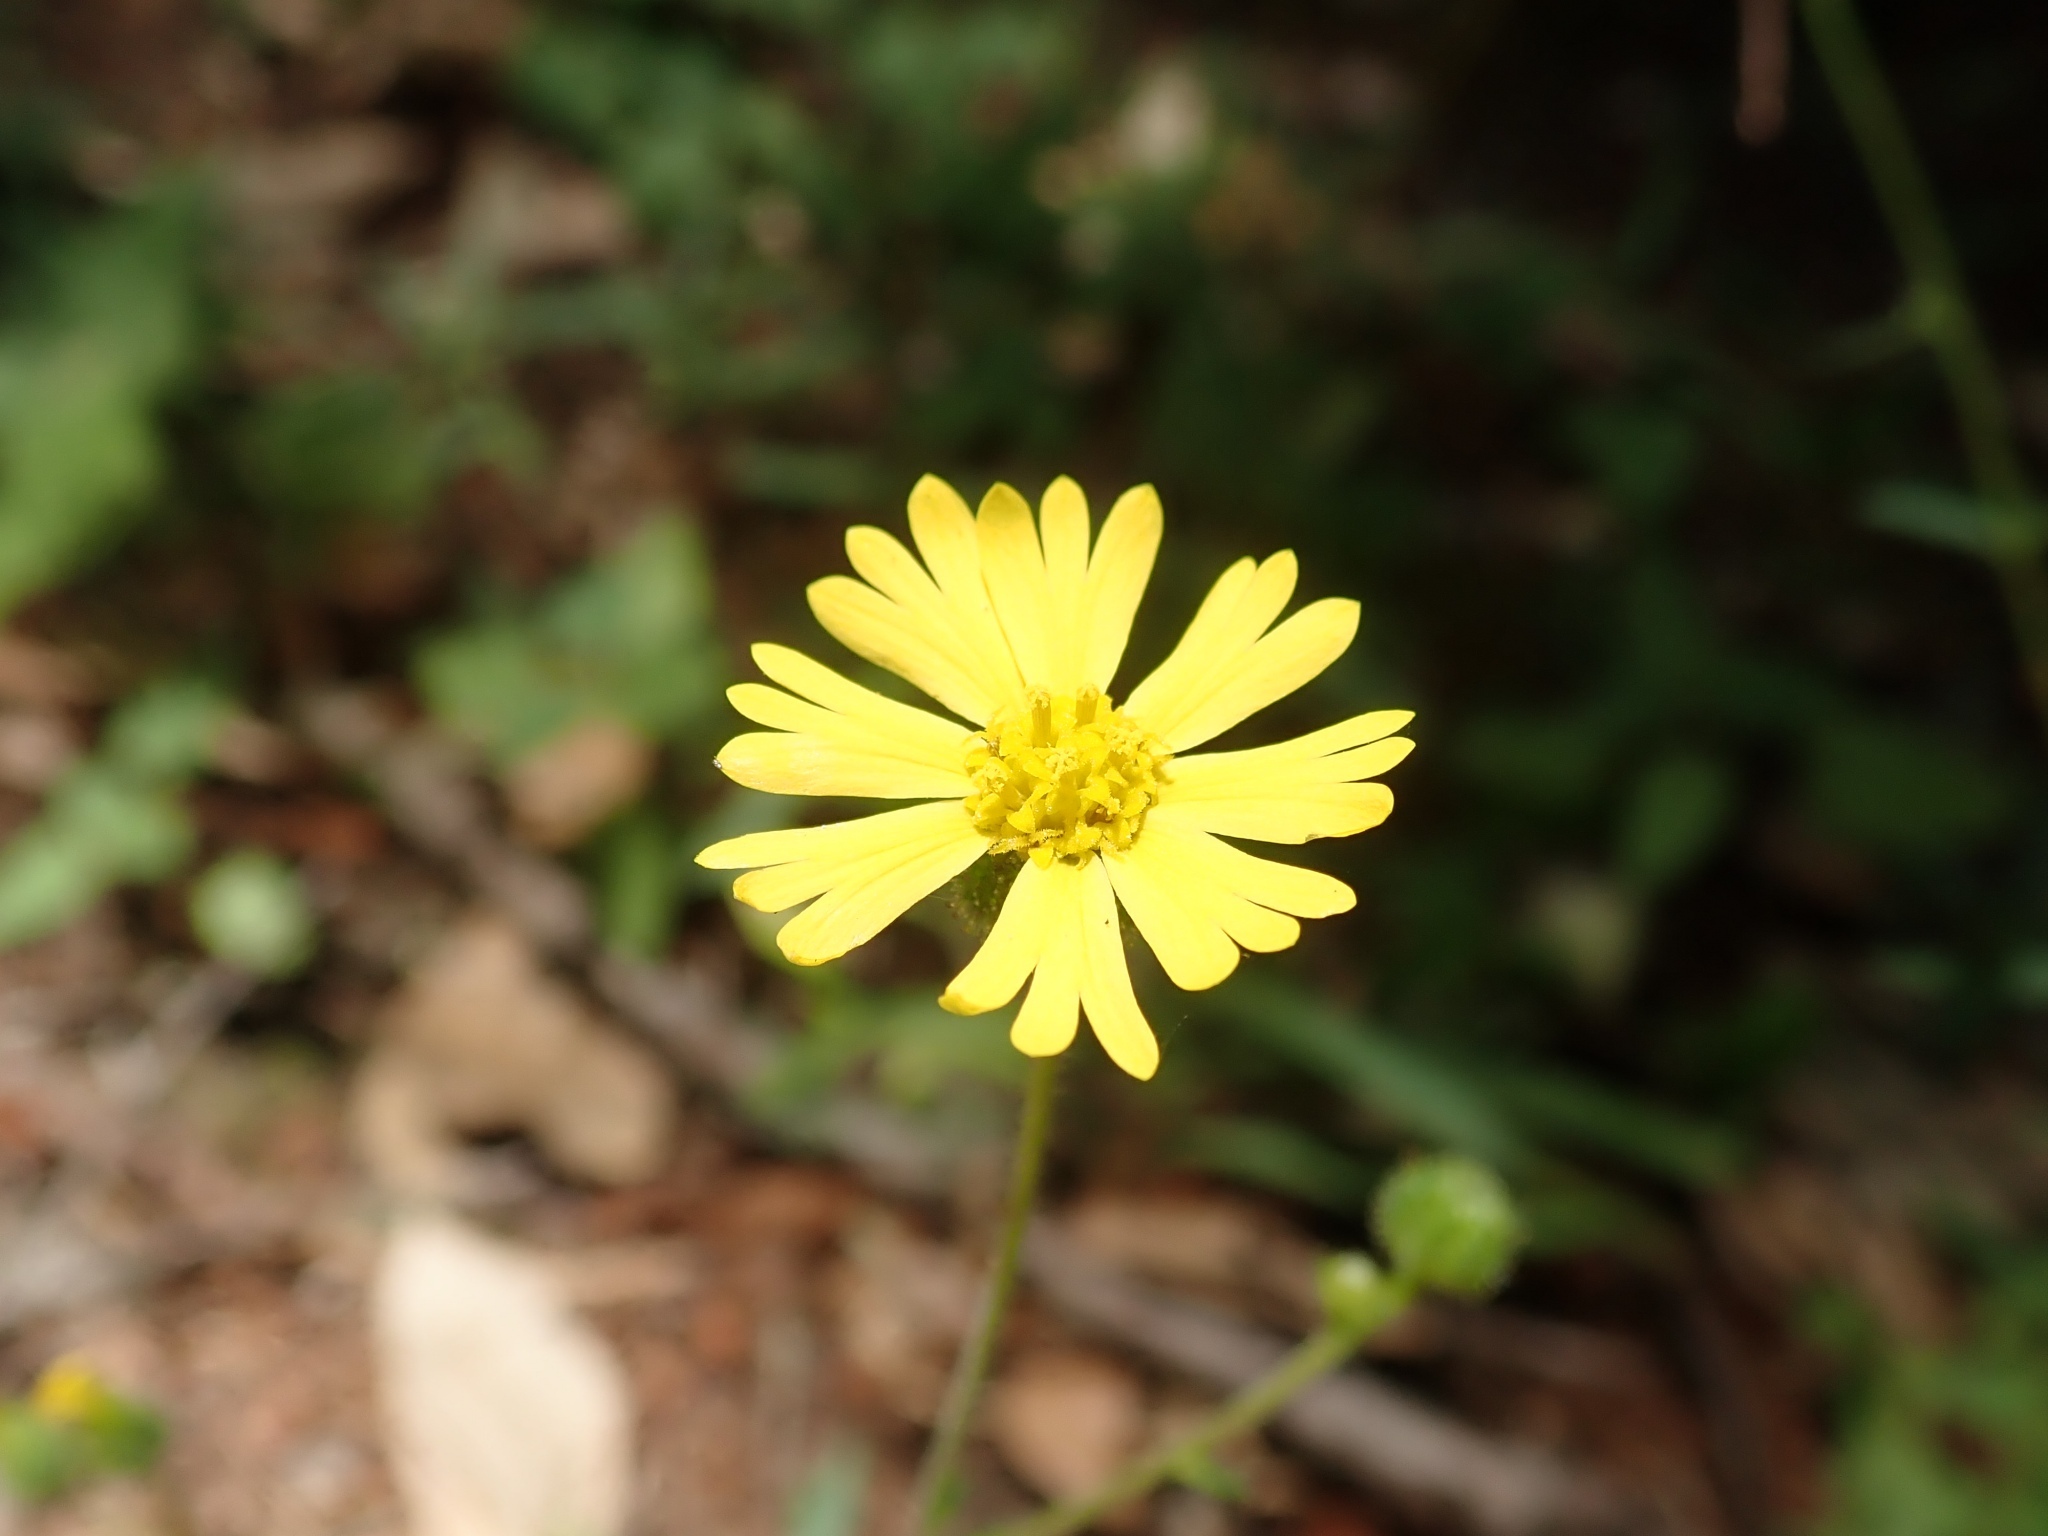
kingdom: Plantae
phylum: Tracheophyta
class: Magnoliopsida
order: Asterales
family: Asteraceae
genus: Anisocarpus
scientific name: Anisocarpus madioides
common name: Woodland madia
